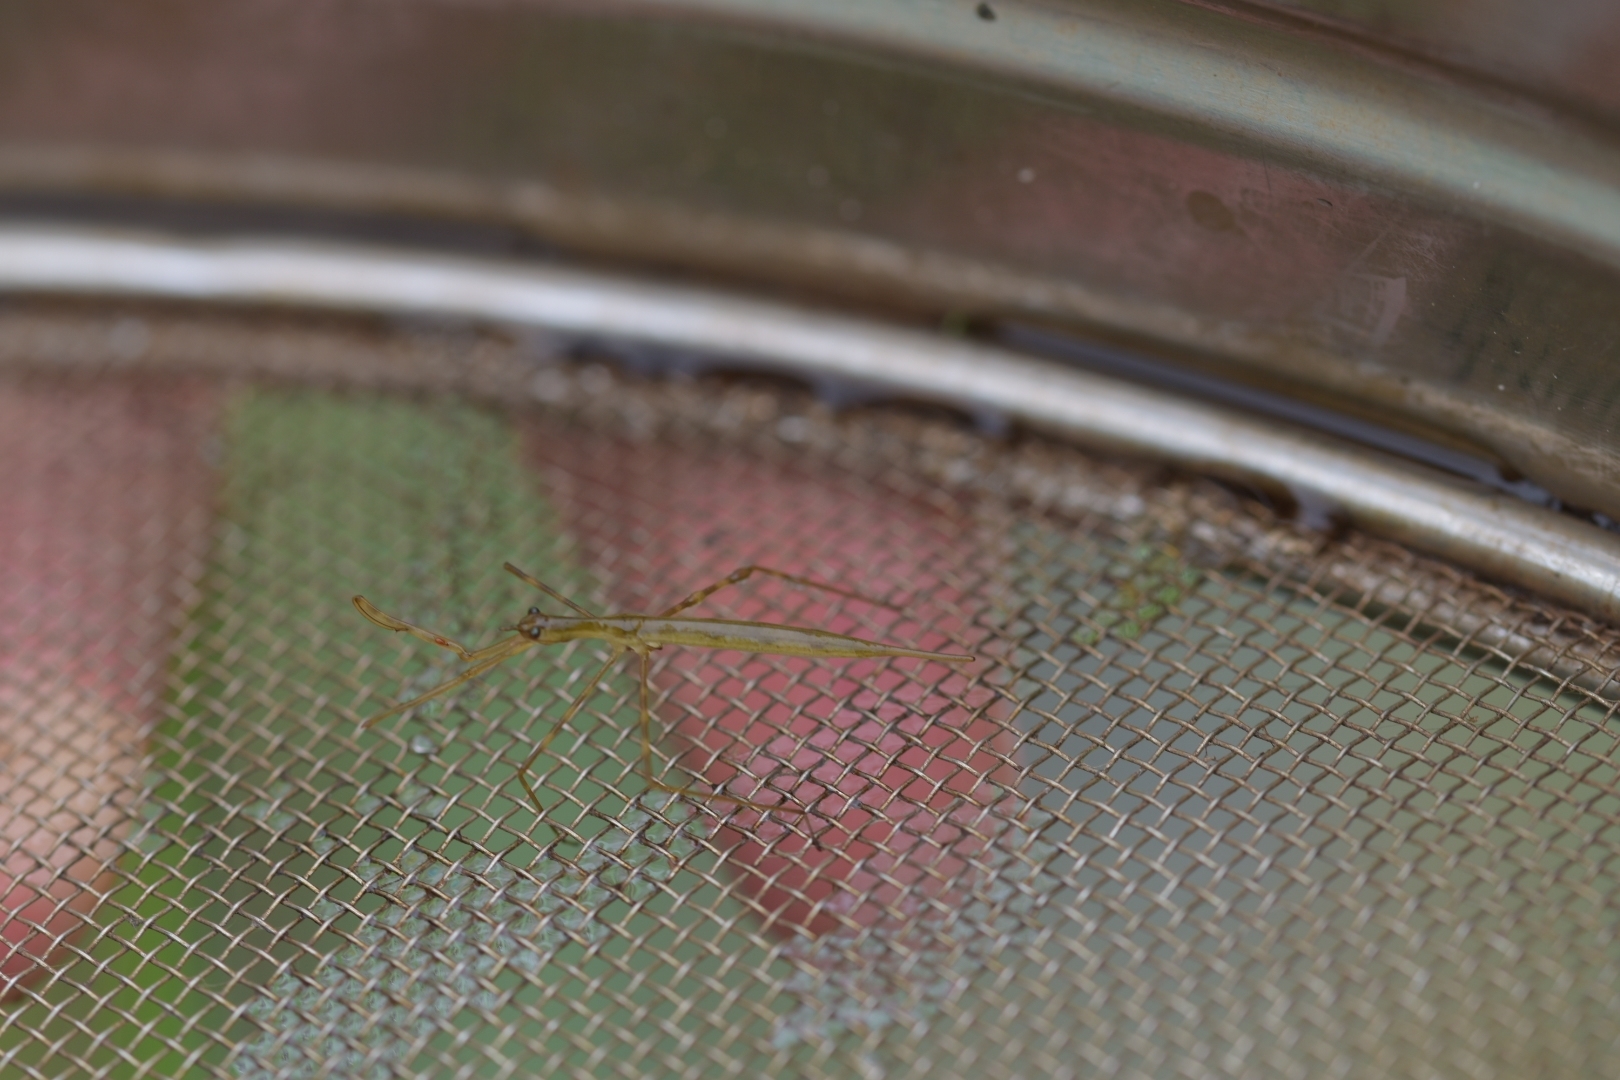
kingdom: Animalia
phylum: Arthropoda
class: Insecta
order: Hemiptera
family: Nepidae
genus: Ranatra
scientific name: Ranatra linearis
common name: Water stick insect
